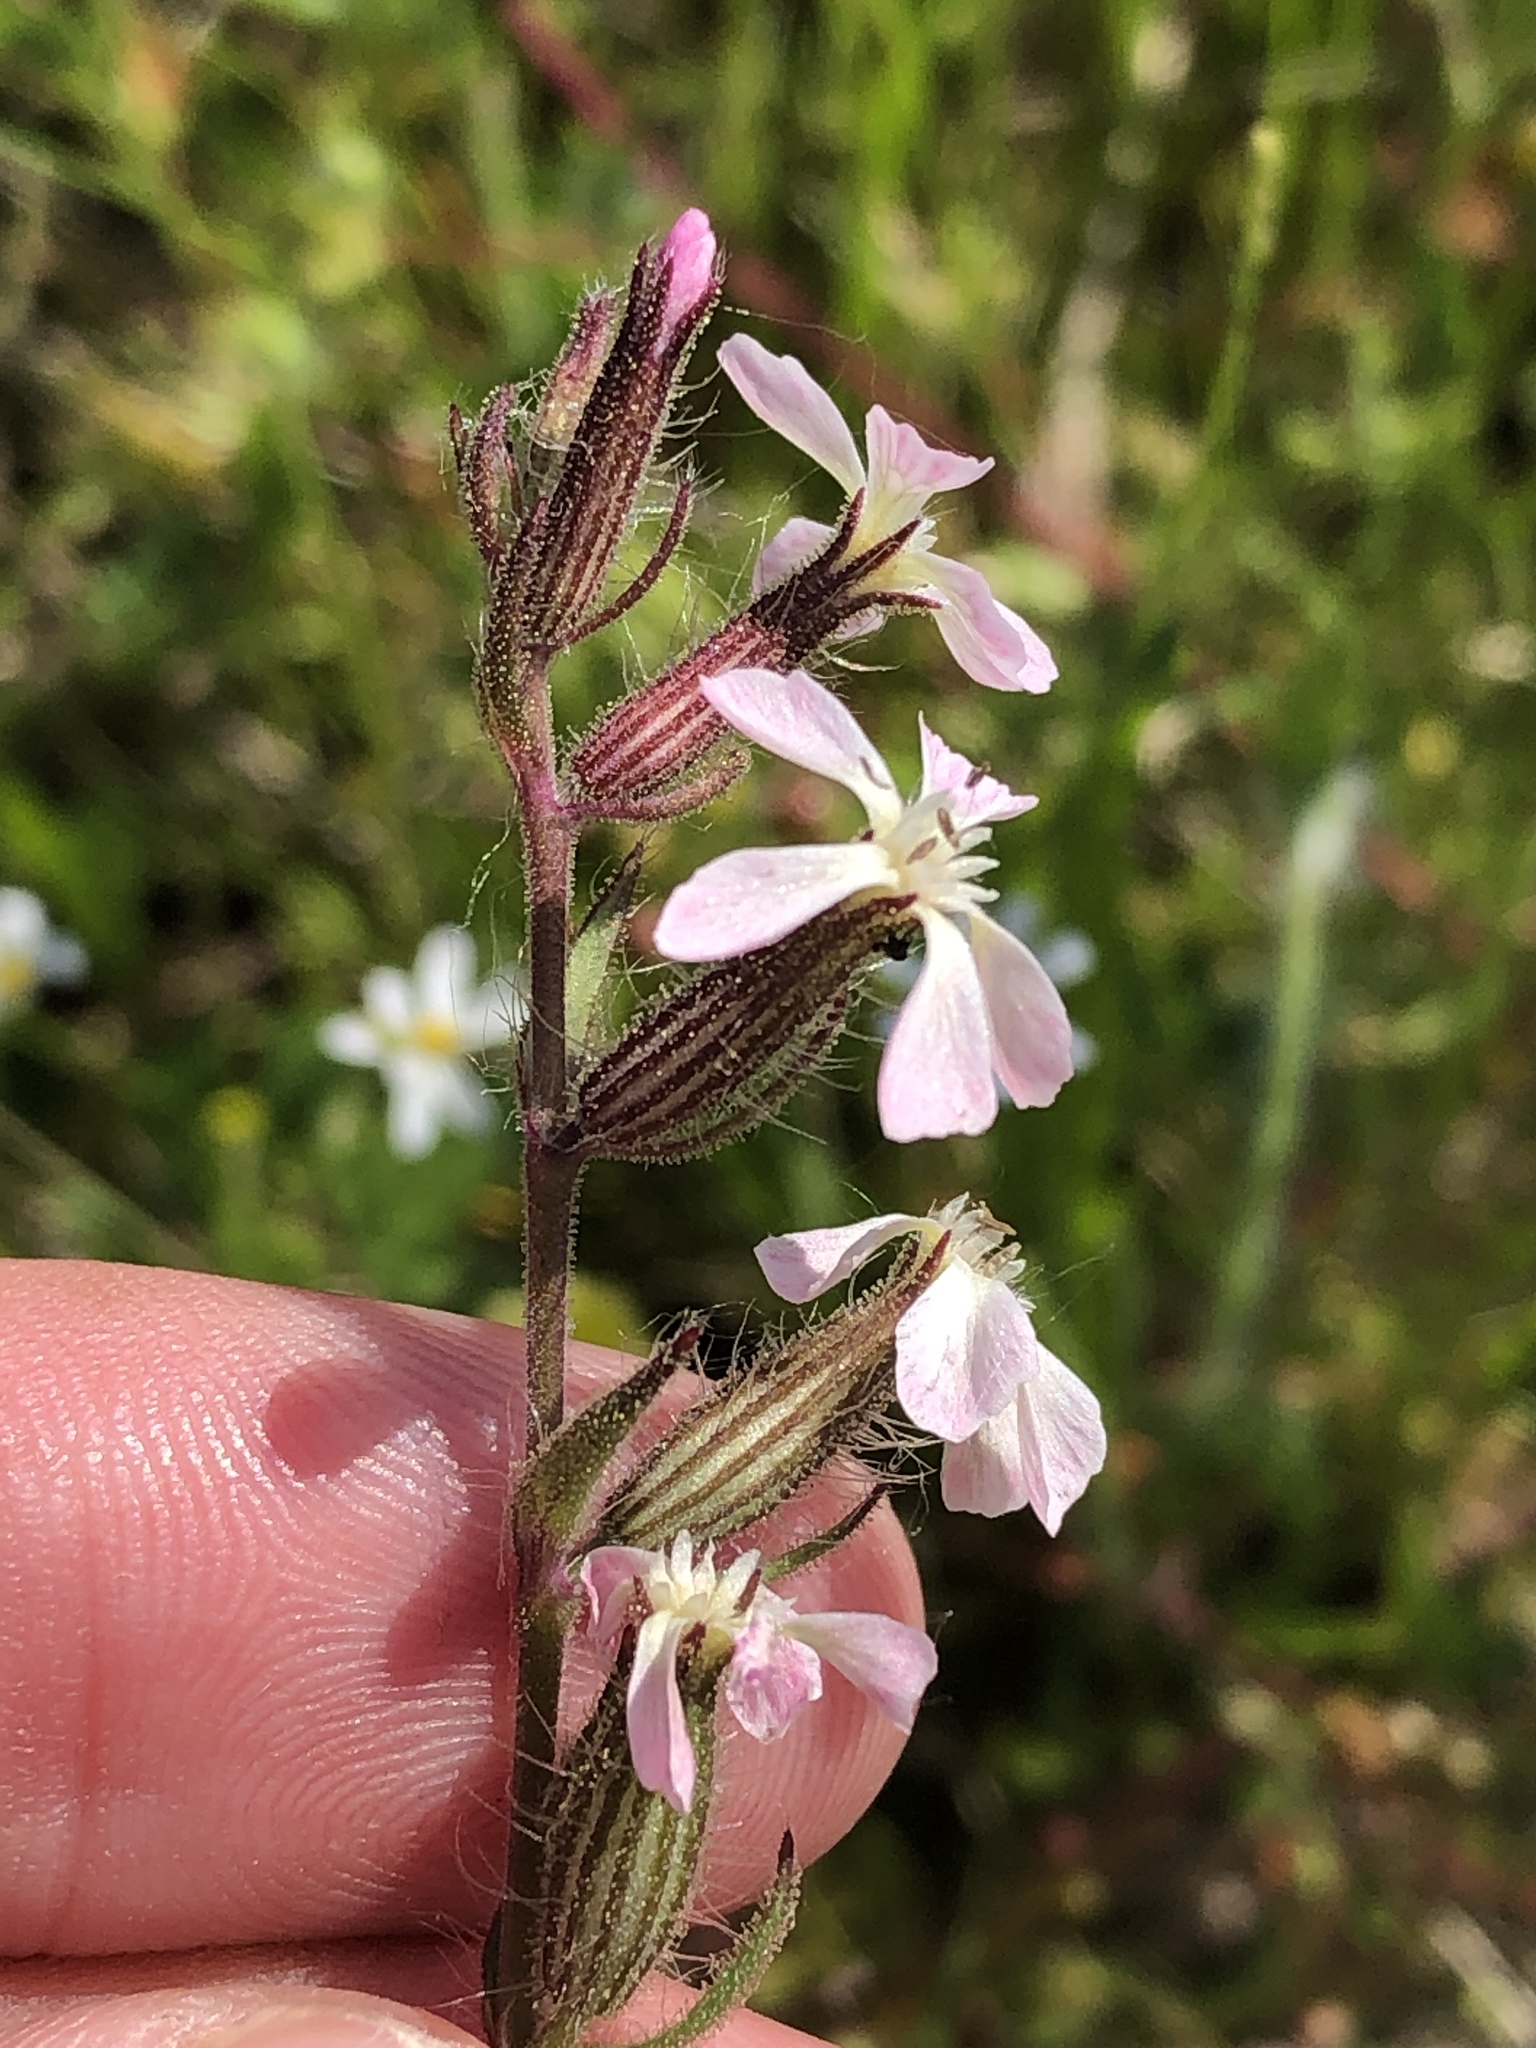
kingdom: Plantae
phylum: Tracheophyta
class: Magnoliopsida
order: Caryophyllales
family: Caryophyllaceae
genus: Silene
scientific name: Silene gallica
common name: Small-flowered catchfly
